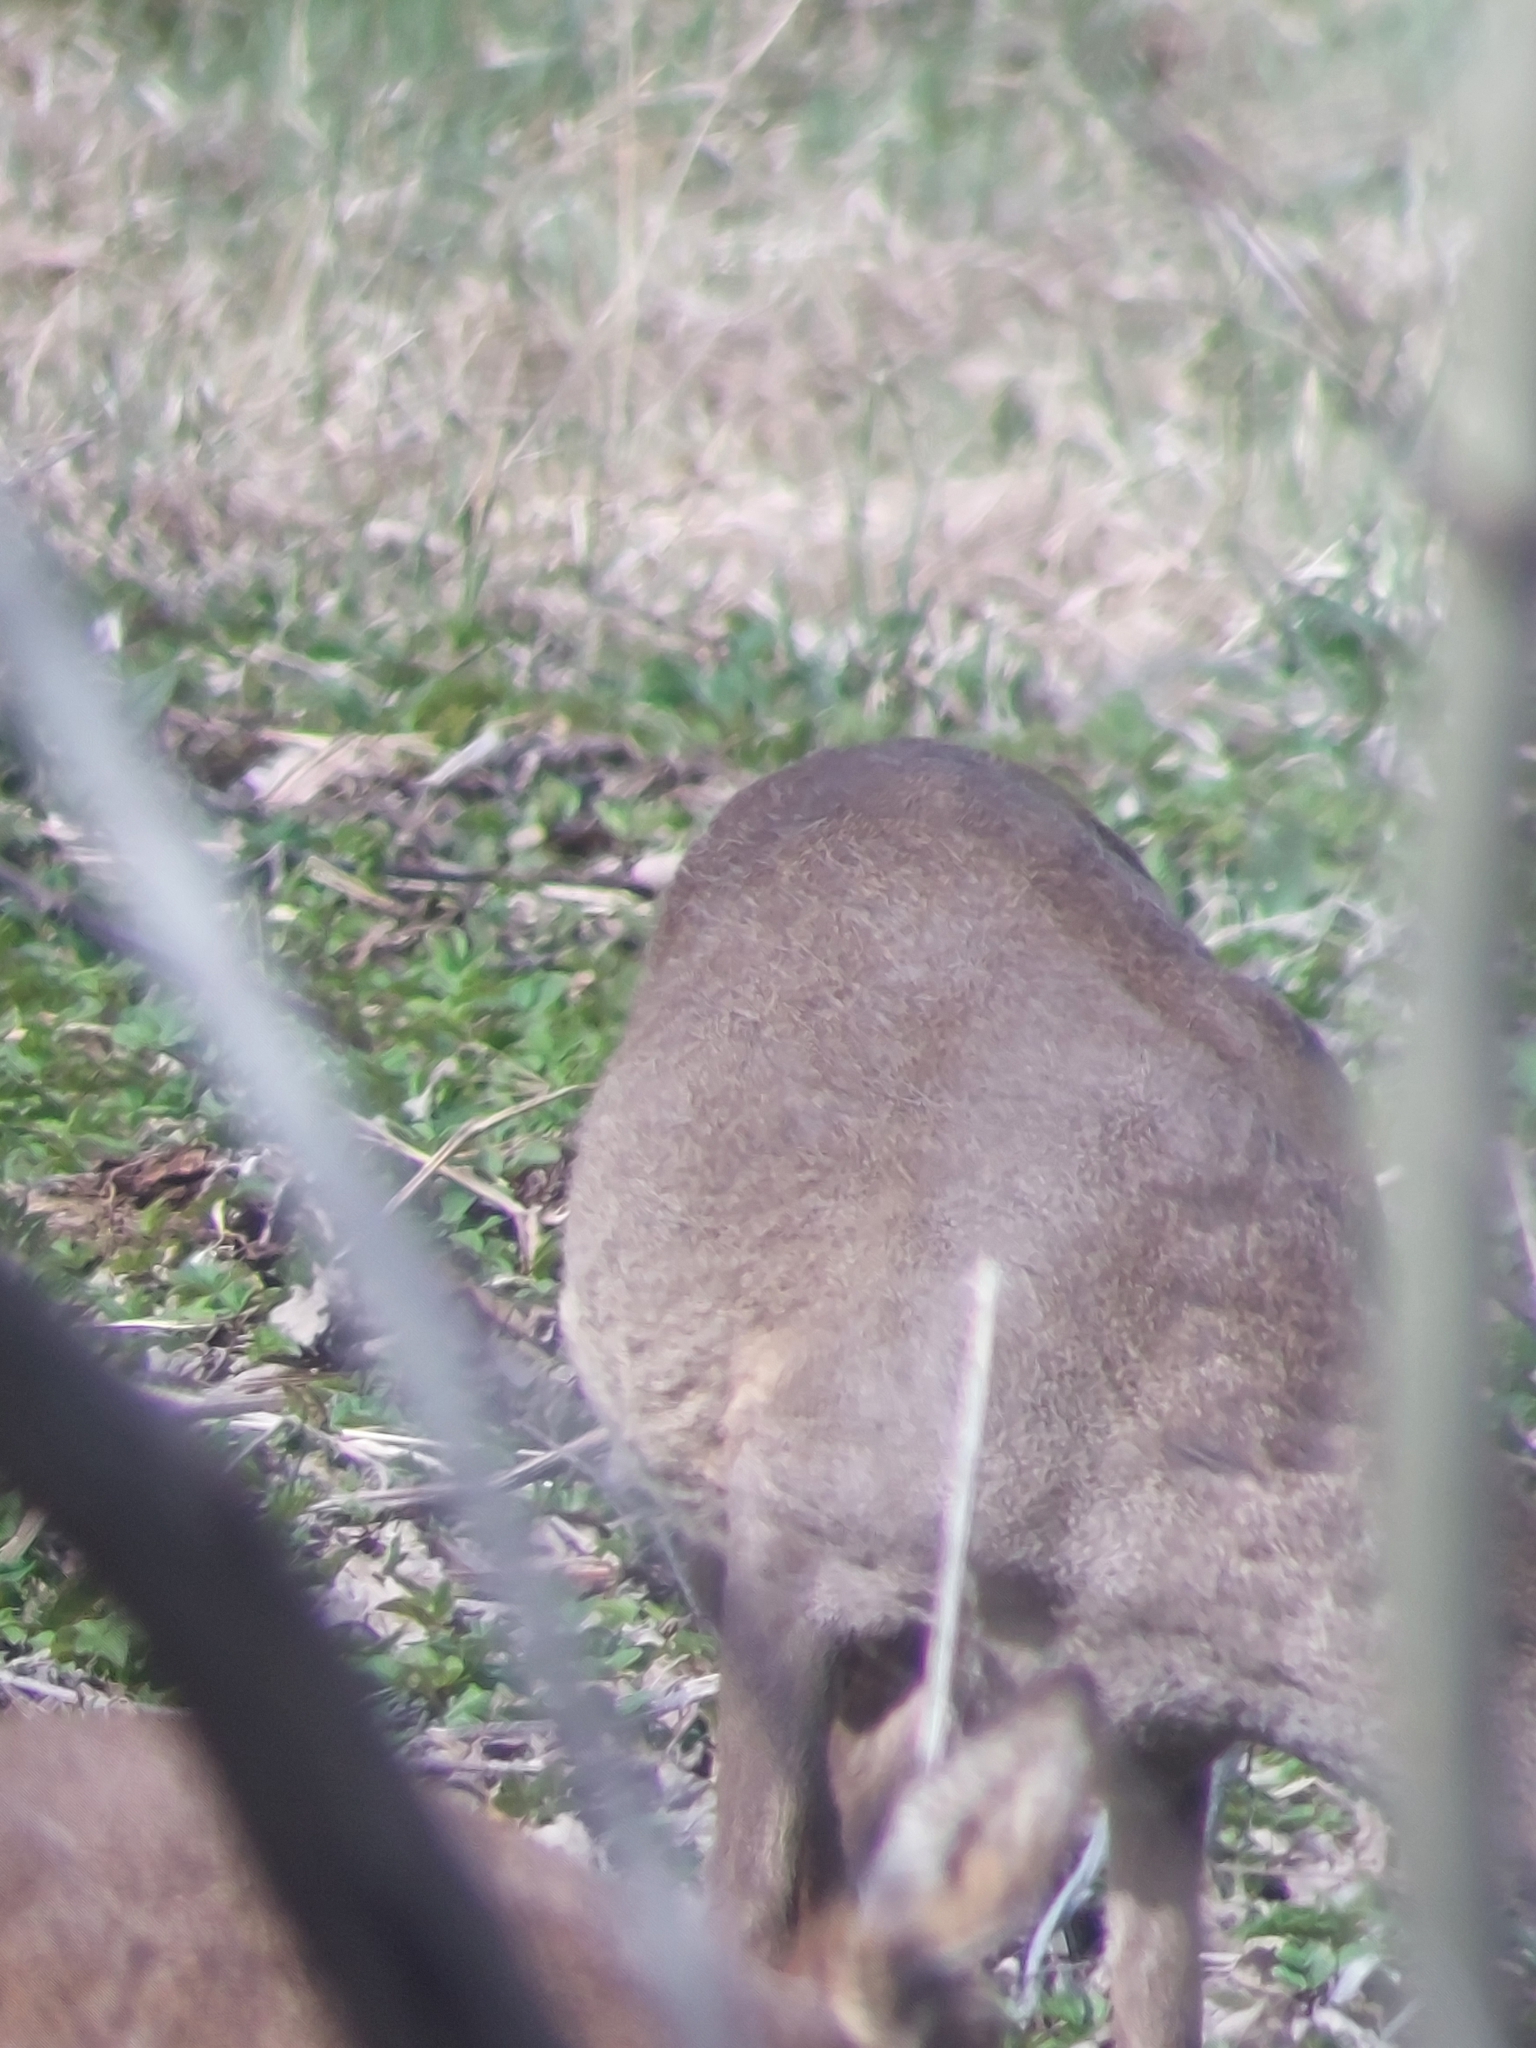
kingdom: Animalia
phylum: Chordata
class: Mammalia
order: Artiodactyla
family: Cervidae
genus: Capreolus
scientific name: Capreolus capreolus
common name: Western roe deer
